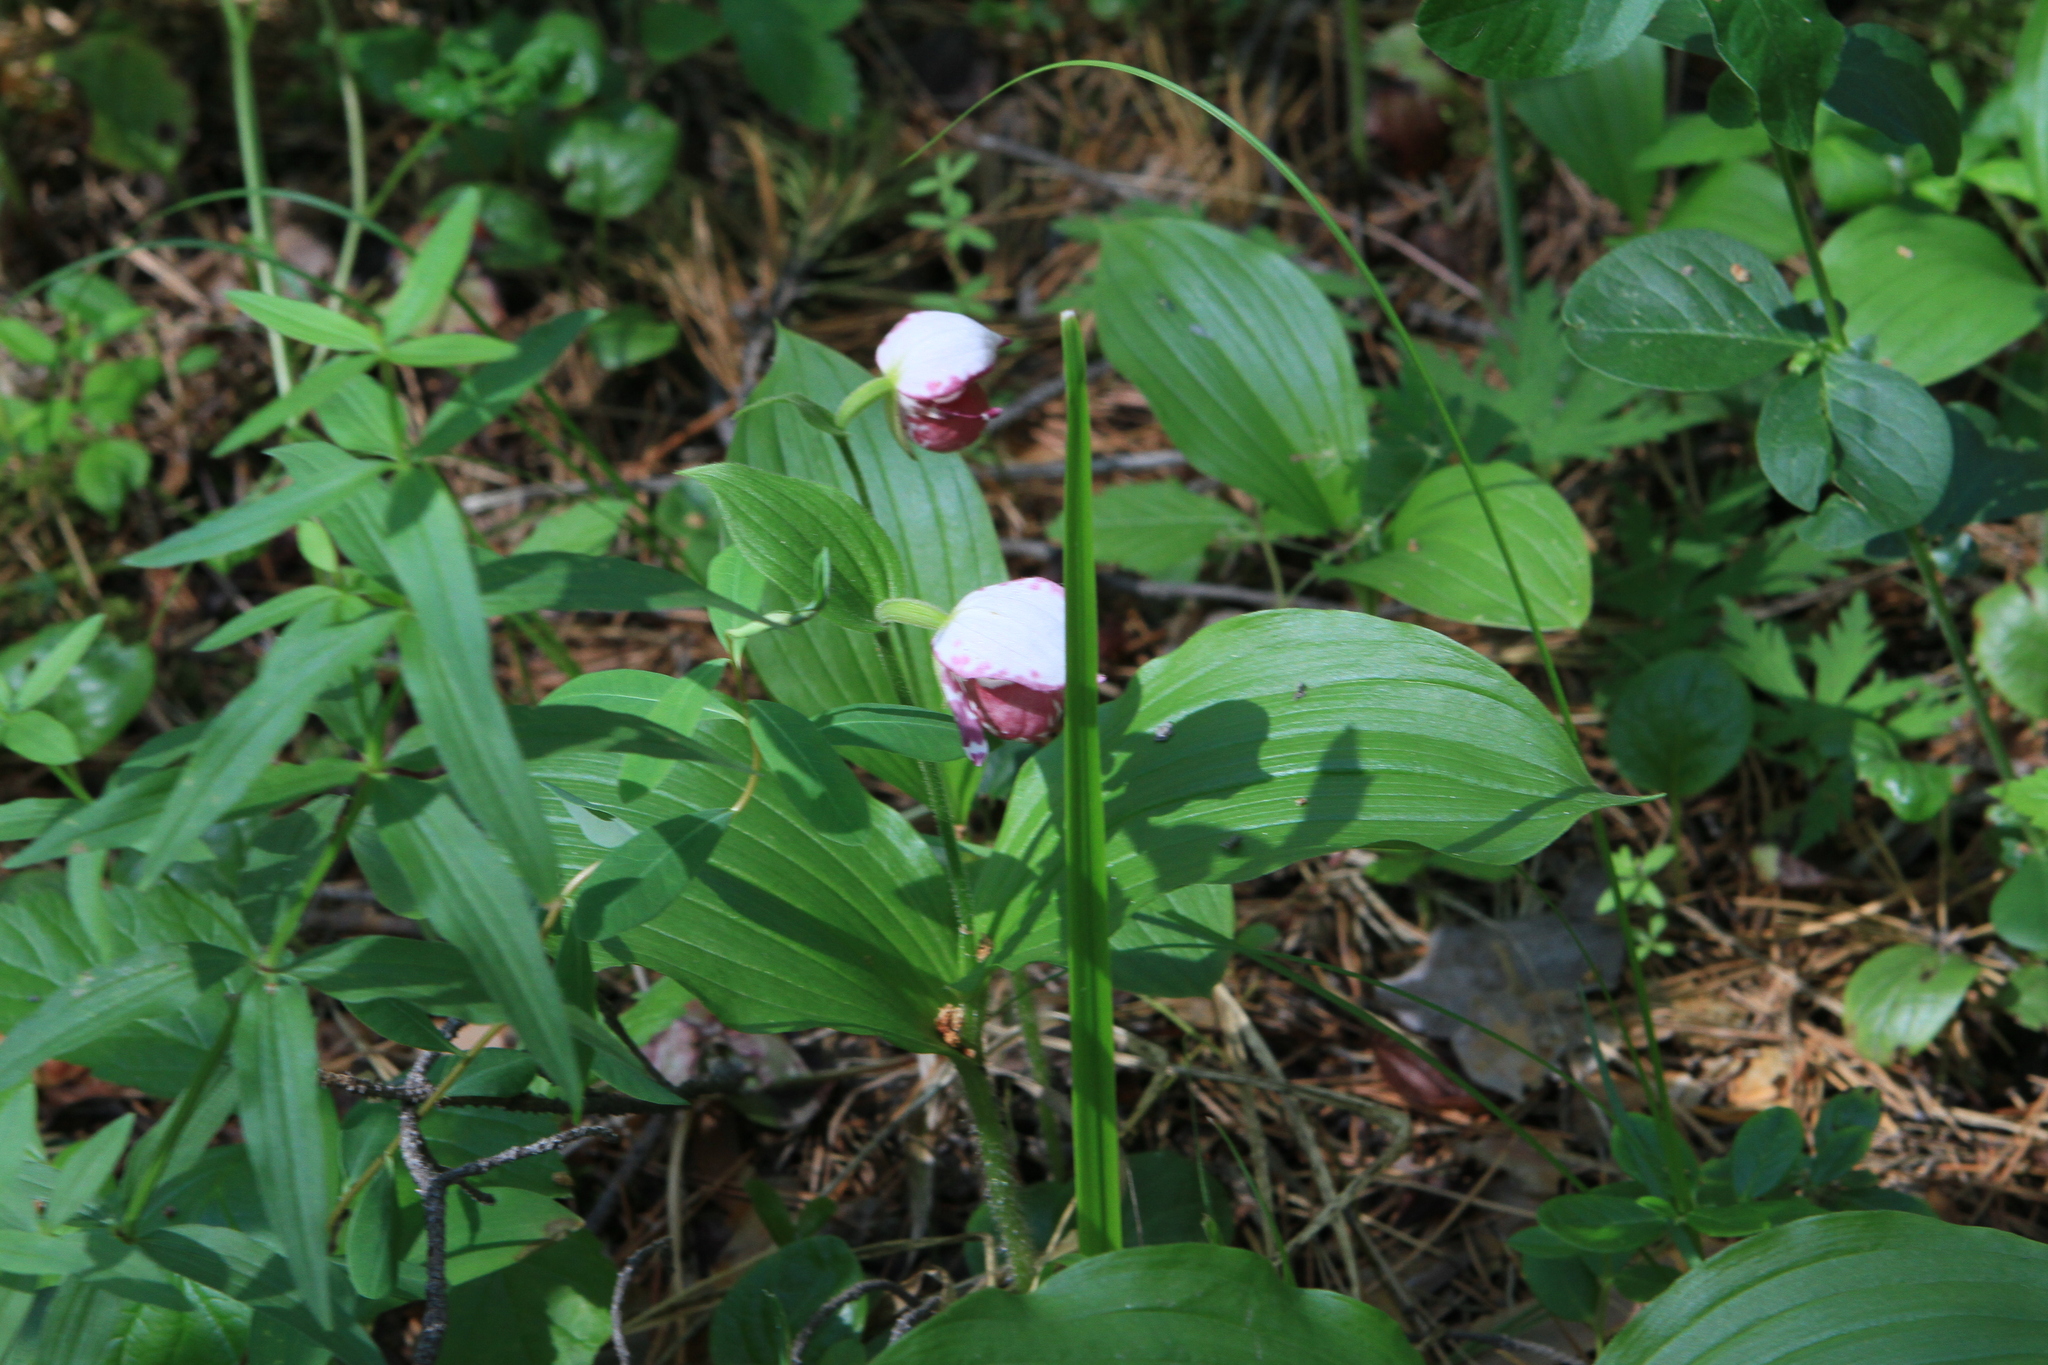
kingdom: Plantae
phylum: Tracheophyta
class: Liliopsida
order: Asparagales
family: Orchidaceae
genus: Cypripedium
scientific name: Cypripedium guttatum
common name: Pink lady slipper
